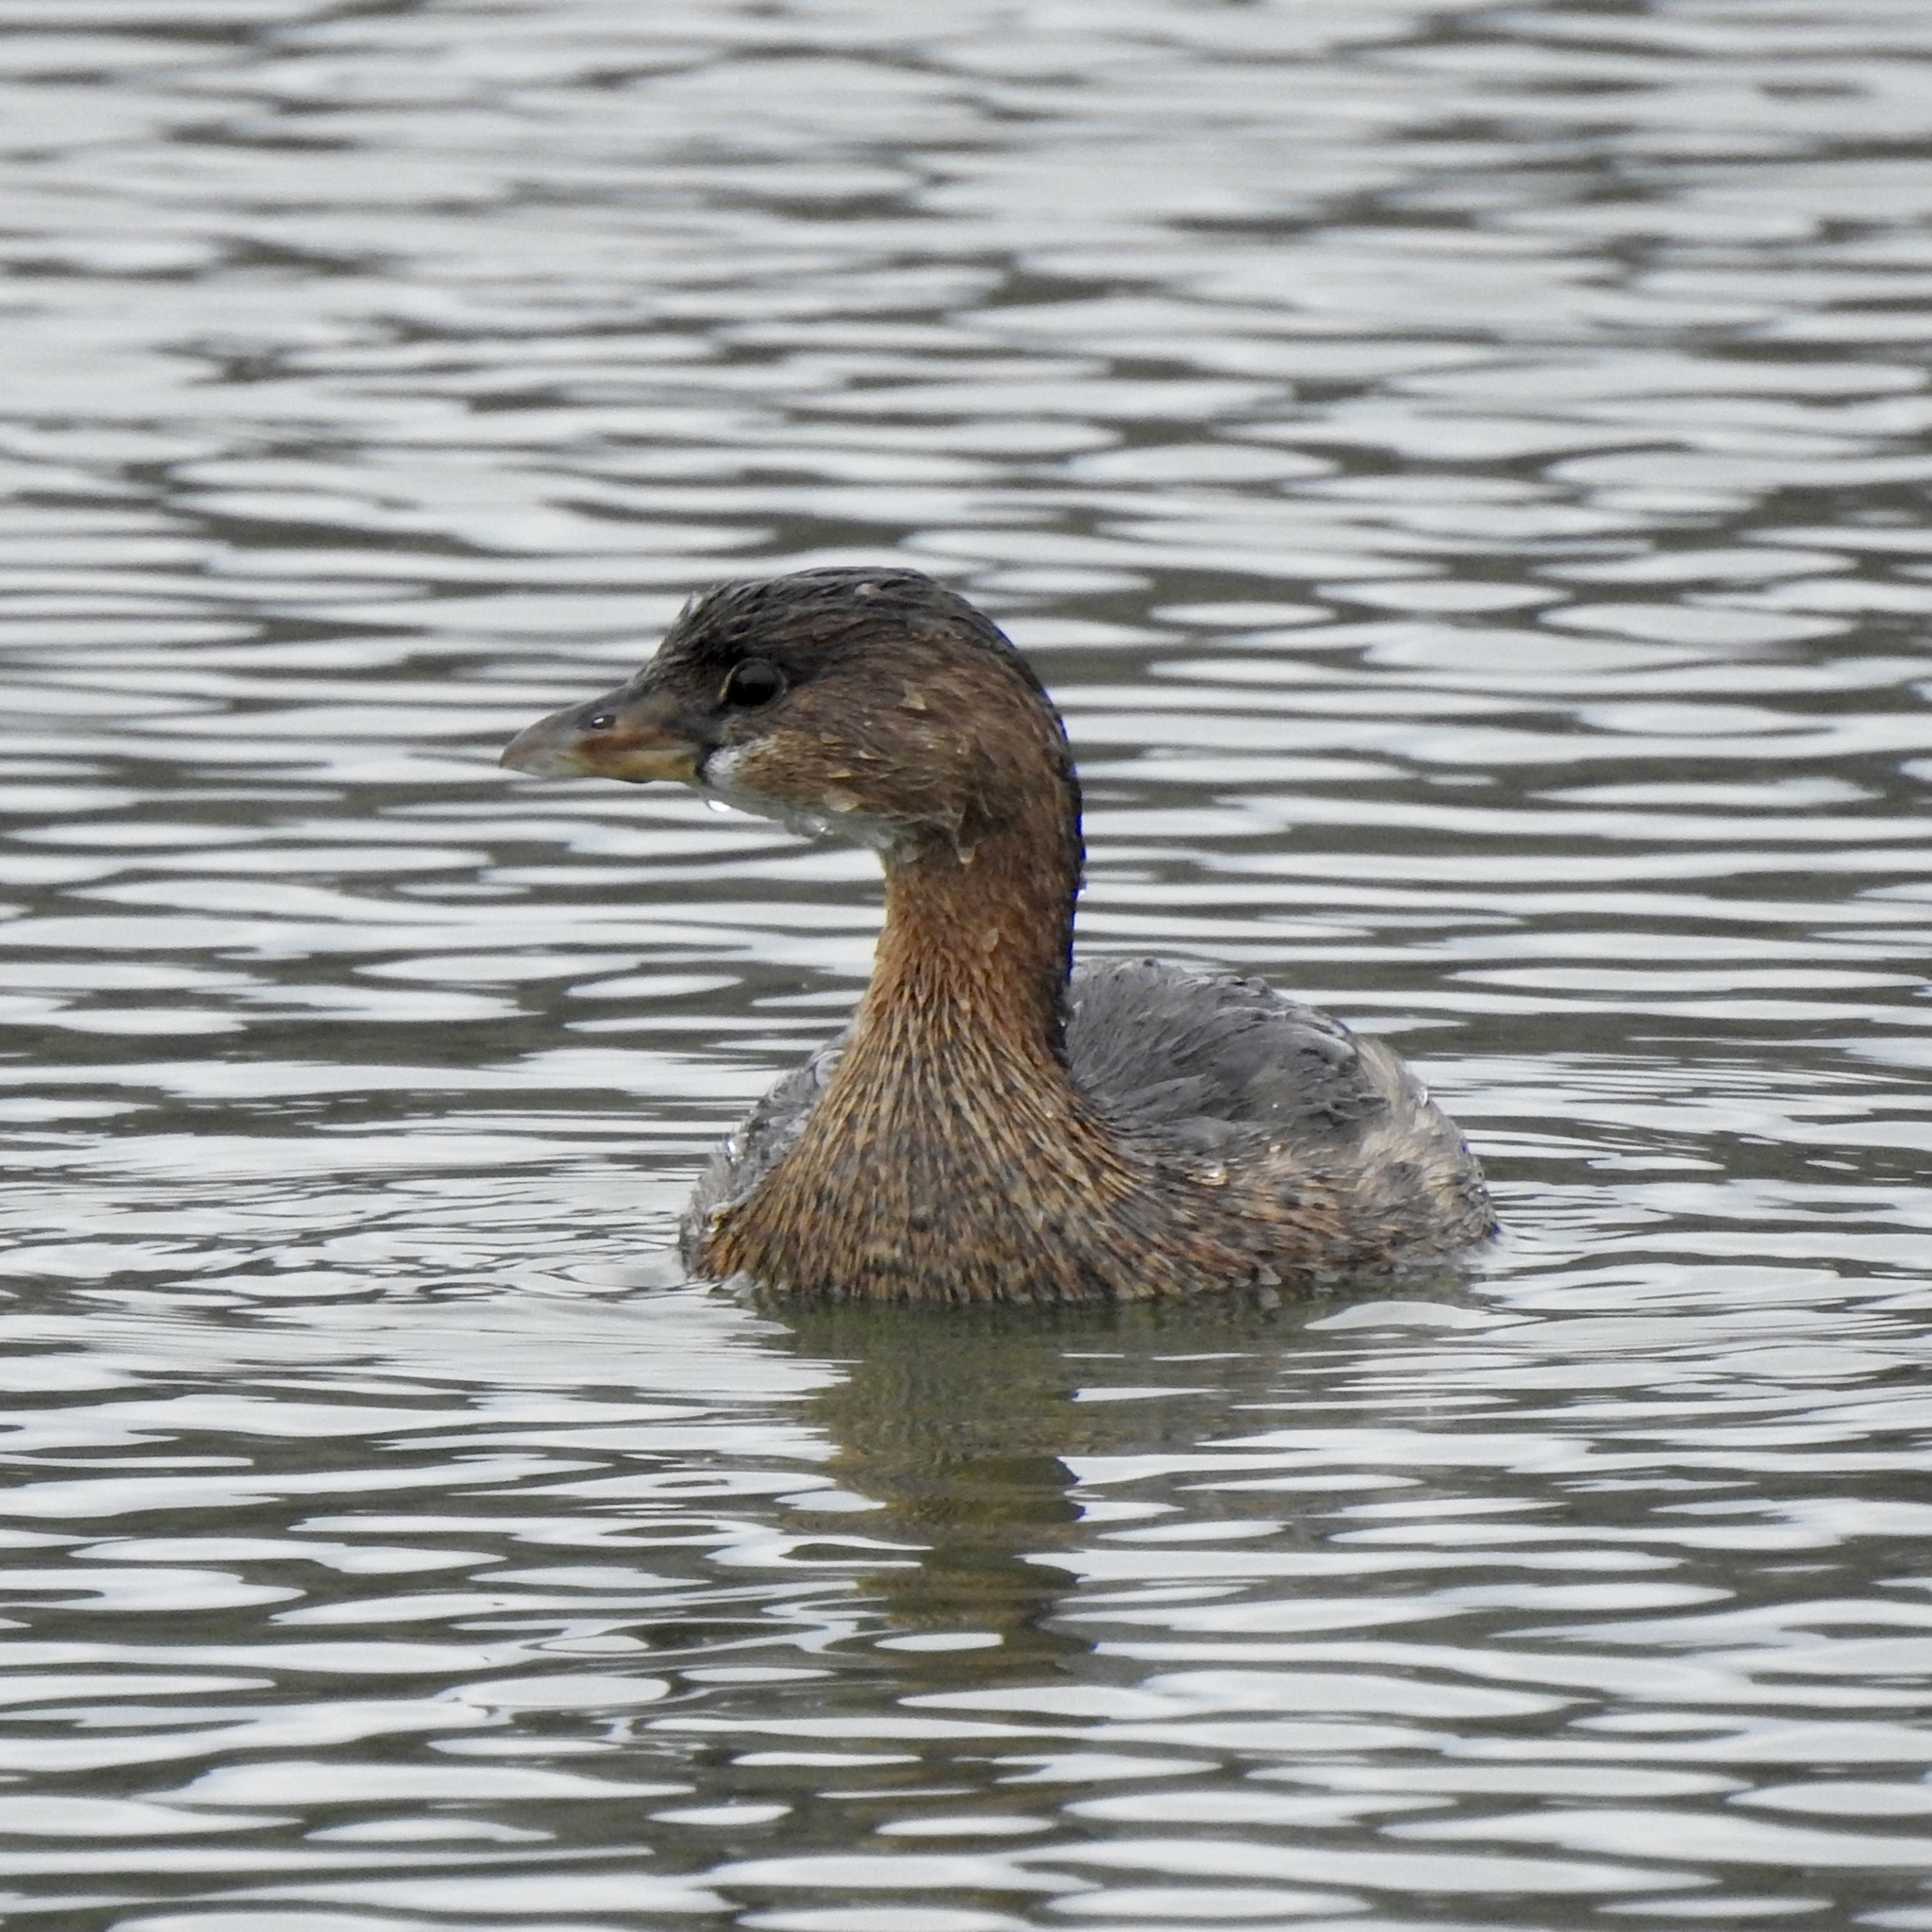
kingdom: Animalia
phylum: Chordata
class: Aves
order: Podicipediformes
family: Podicipedidae
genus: Podilymbus
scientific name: Podilymbus podiceps
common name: Pied-billed grebe
